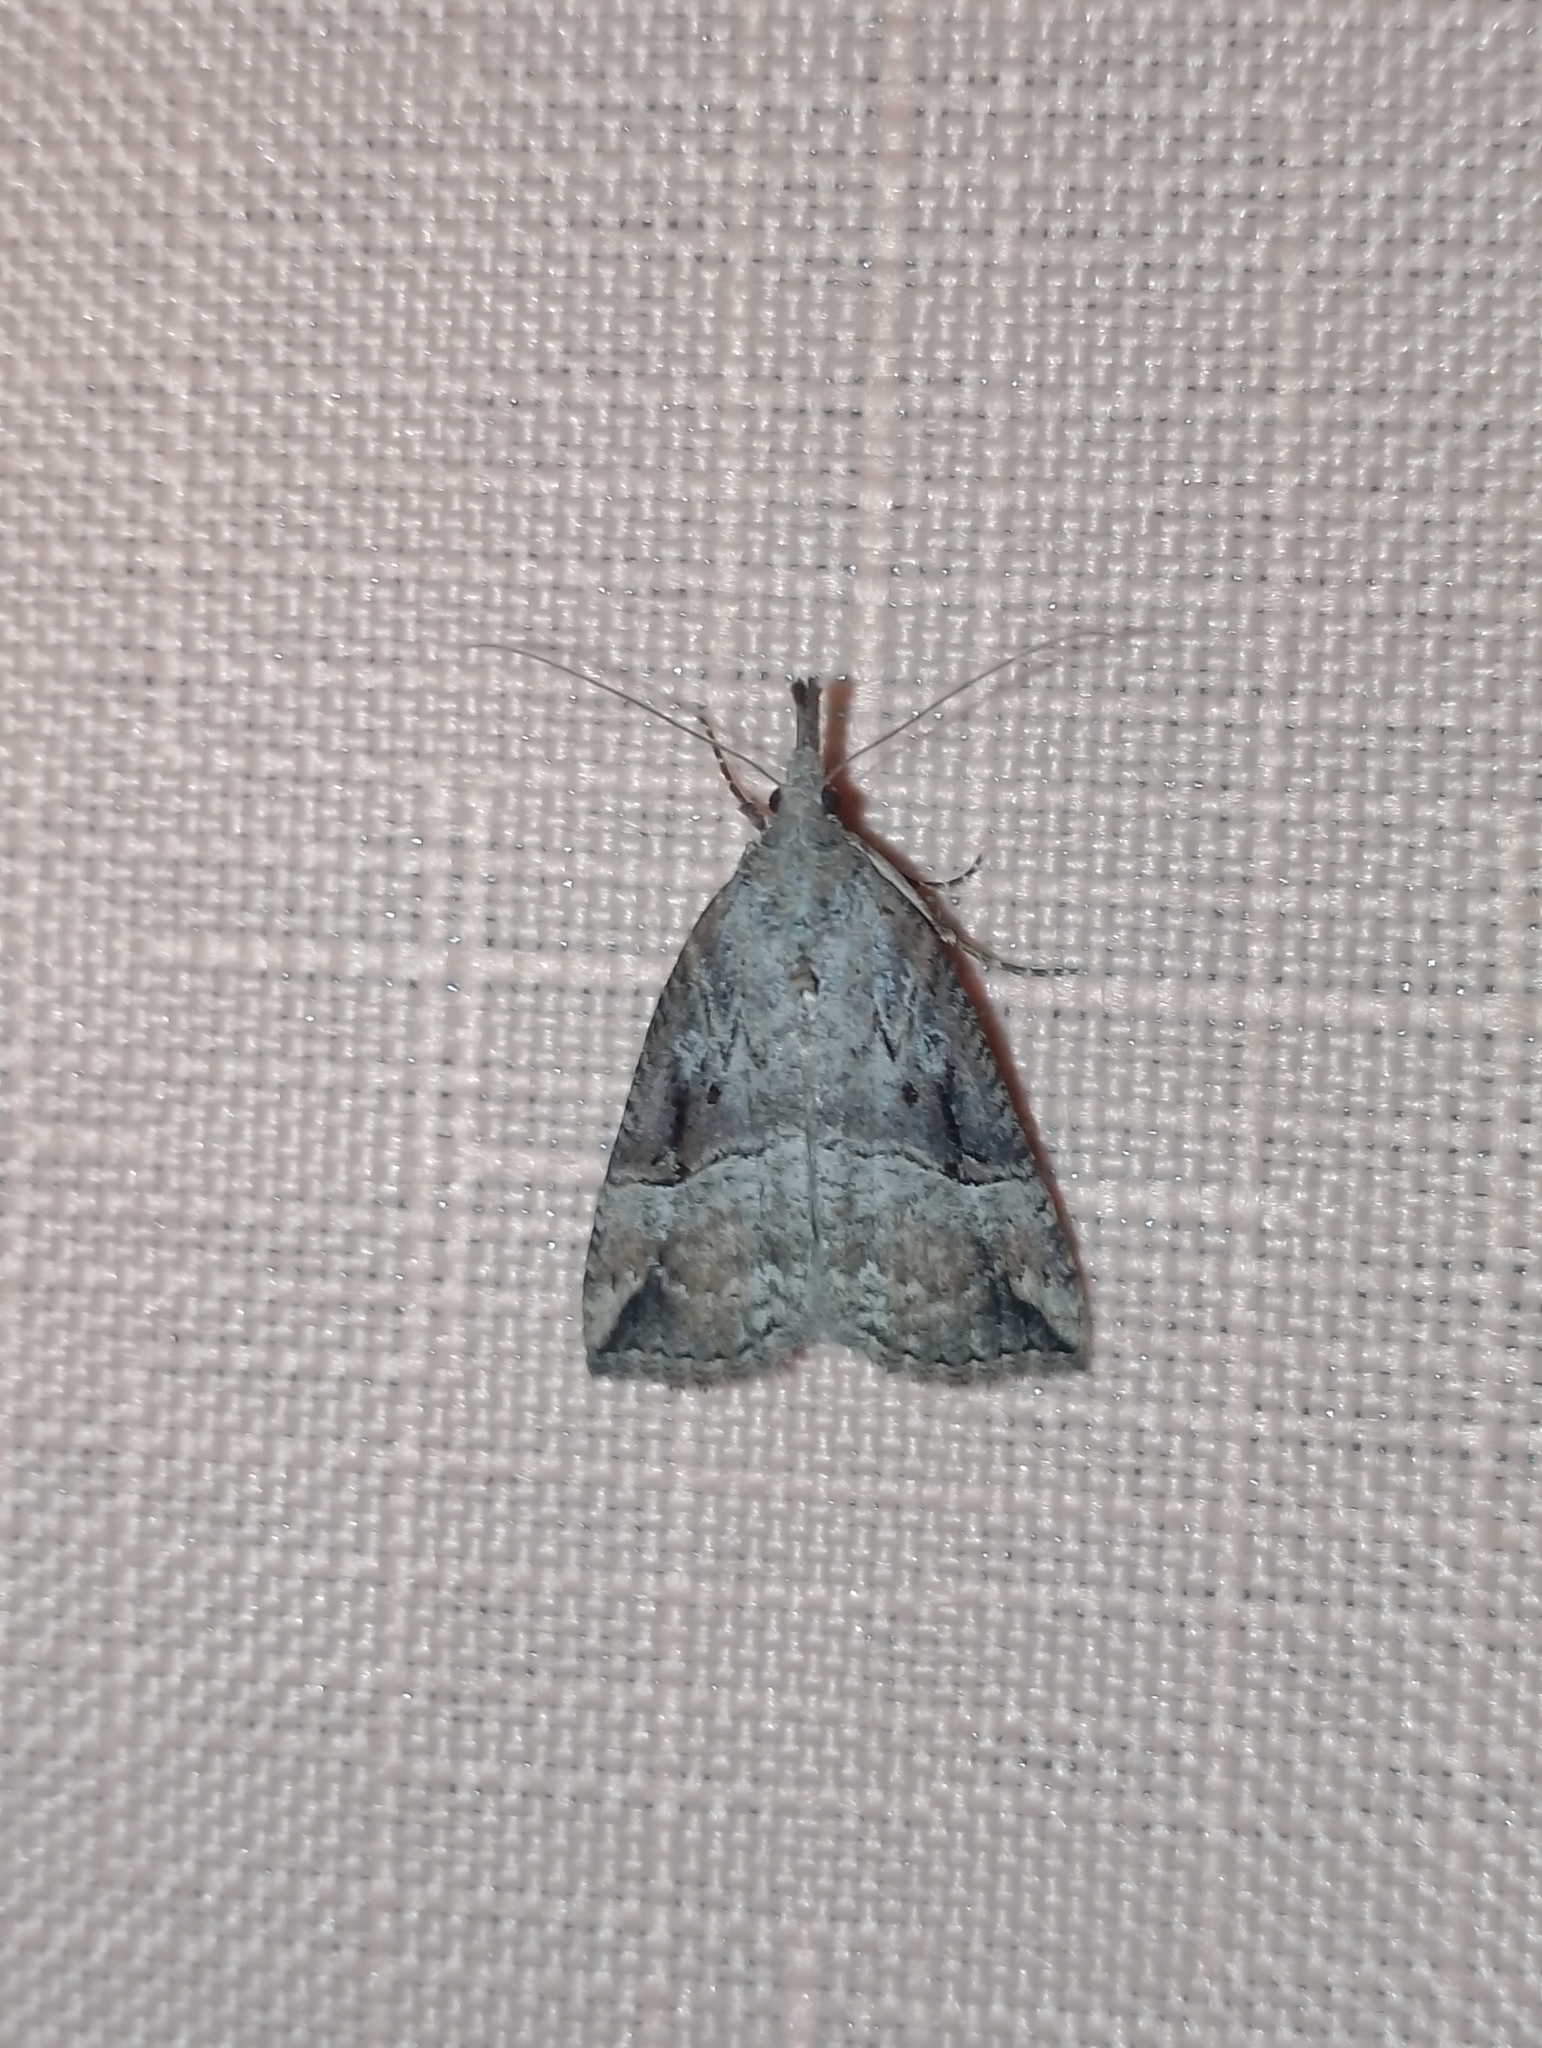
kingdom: Animalia
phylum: Arthropoda
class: Insecta
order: Lepidoptera
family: Erebidae
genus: Hypena
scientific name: Hypena rostralis
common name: Buttoned snout
